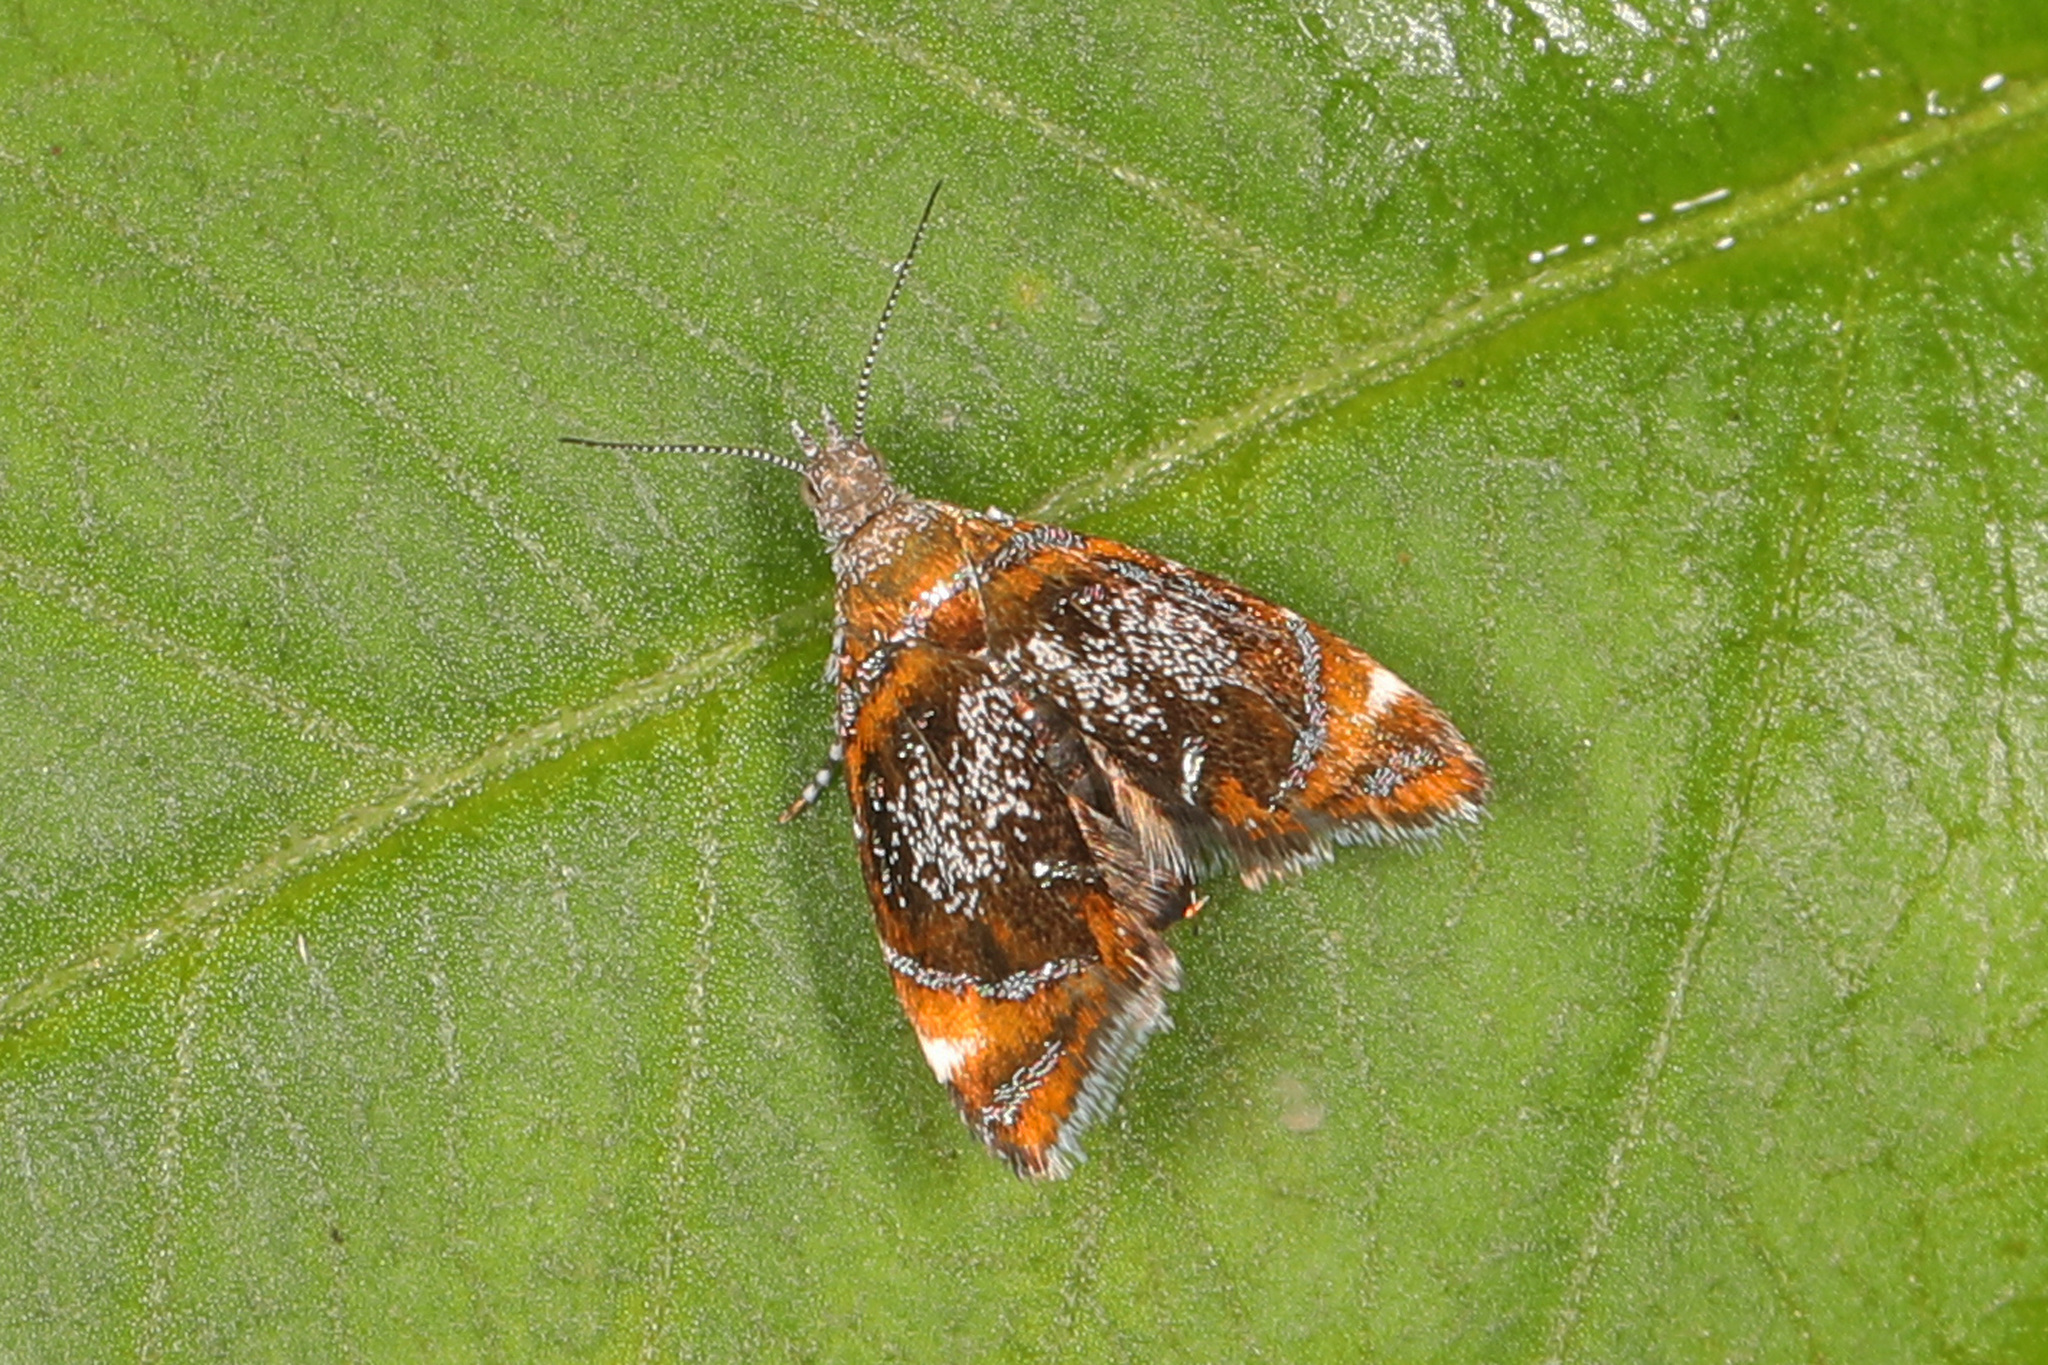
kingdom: Animalia
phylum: Arthropoda
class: Insecta
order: Lepidoptera
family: Choreutidae
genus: Prochoreutis
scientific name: Prochoreutis inflatella
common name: Skullcap skeletonizer moth
